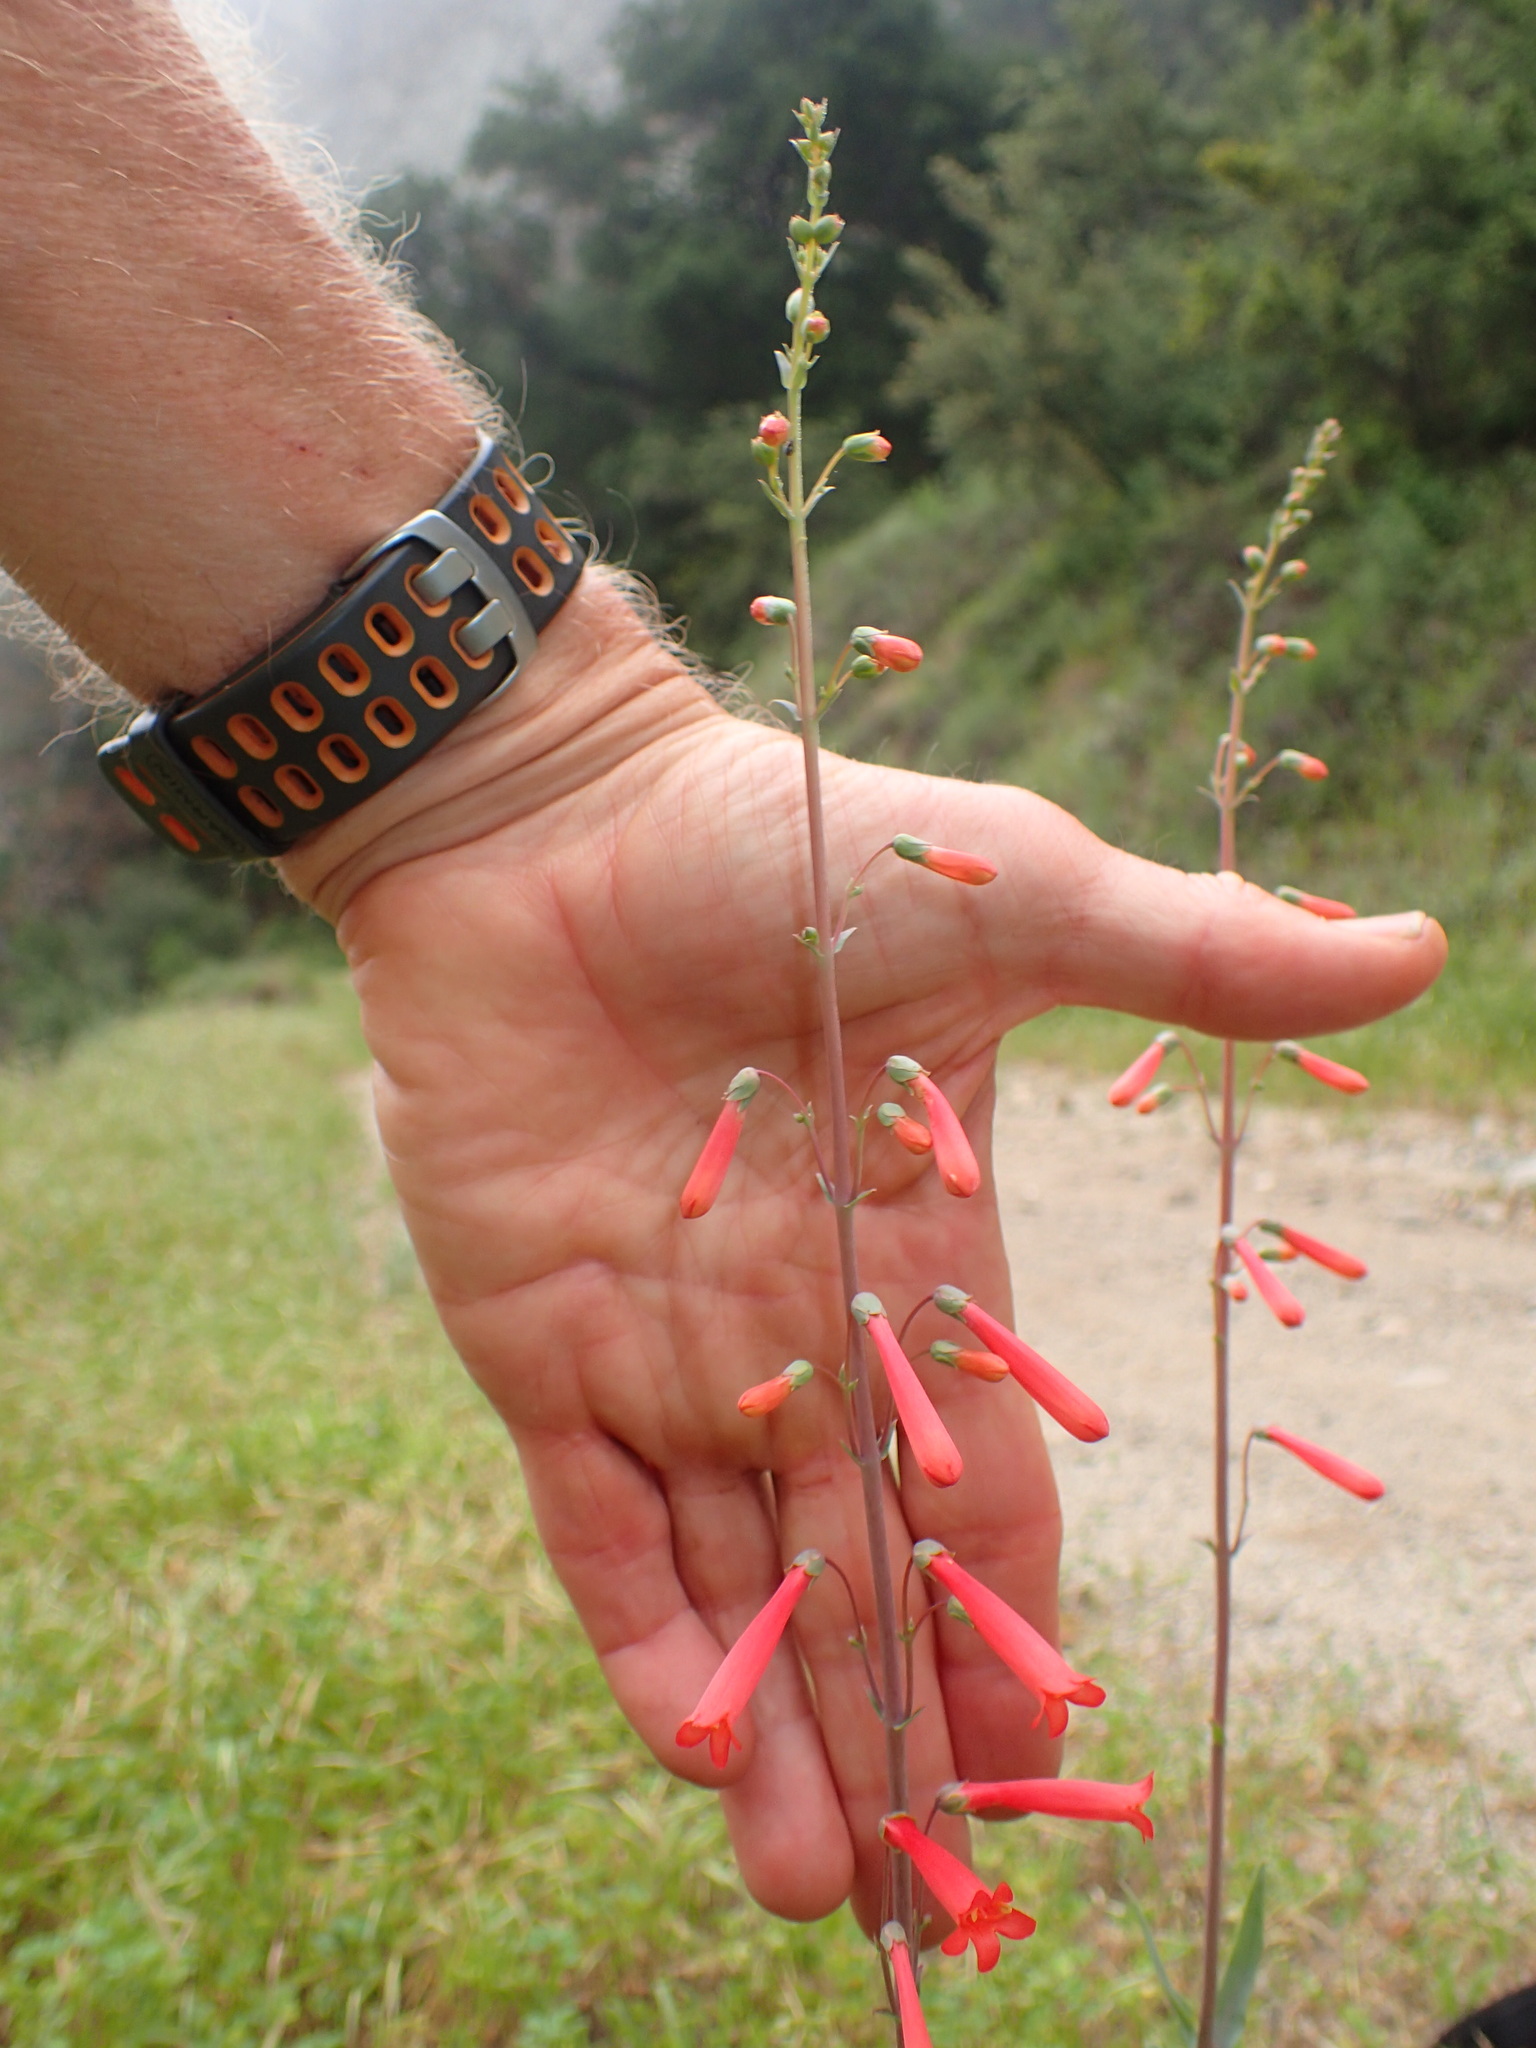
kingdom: Plantae
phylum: Tracheophyta
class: Magnoliopsida
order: Lamiales
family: Plantaginaceae
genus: Penstemon
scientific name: Penstemon centranthifolius
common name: Scarlet bugler
